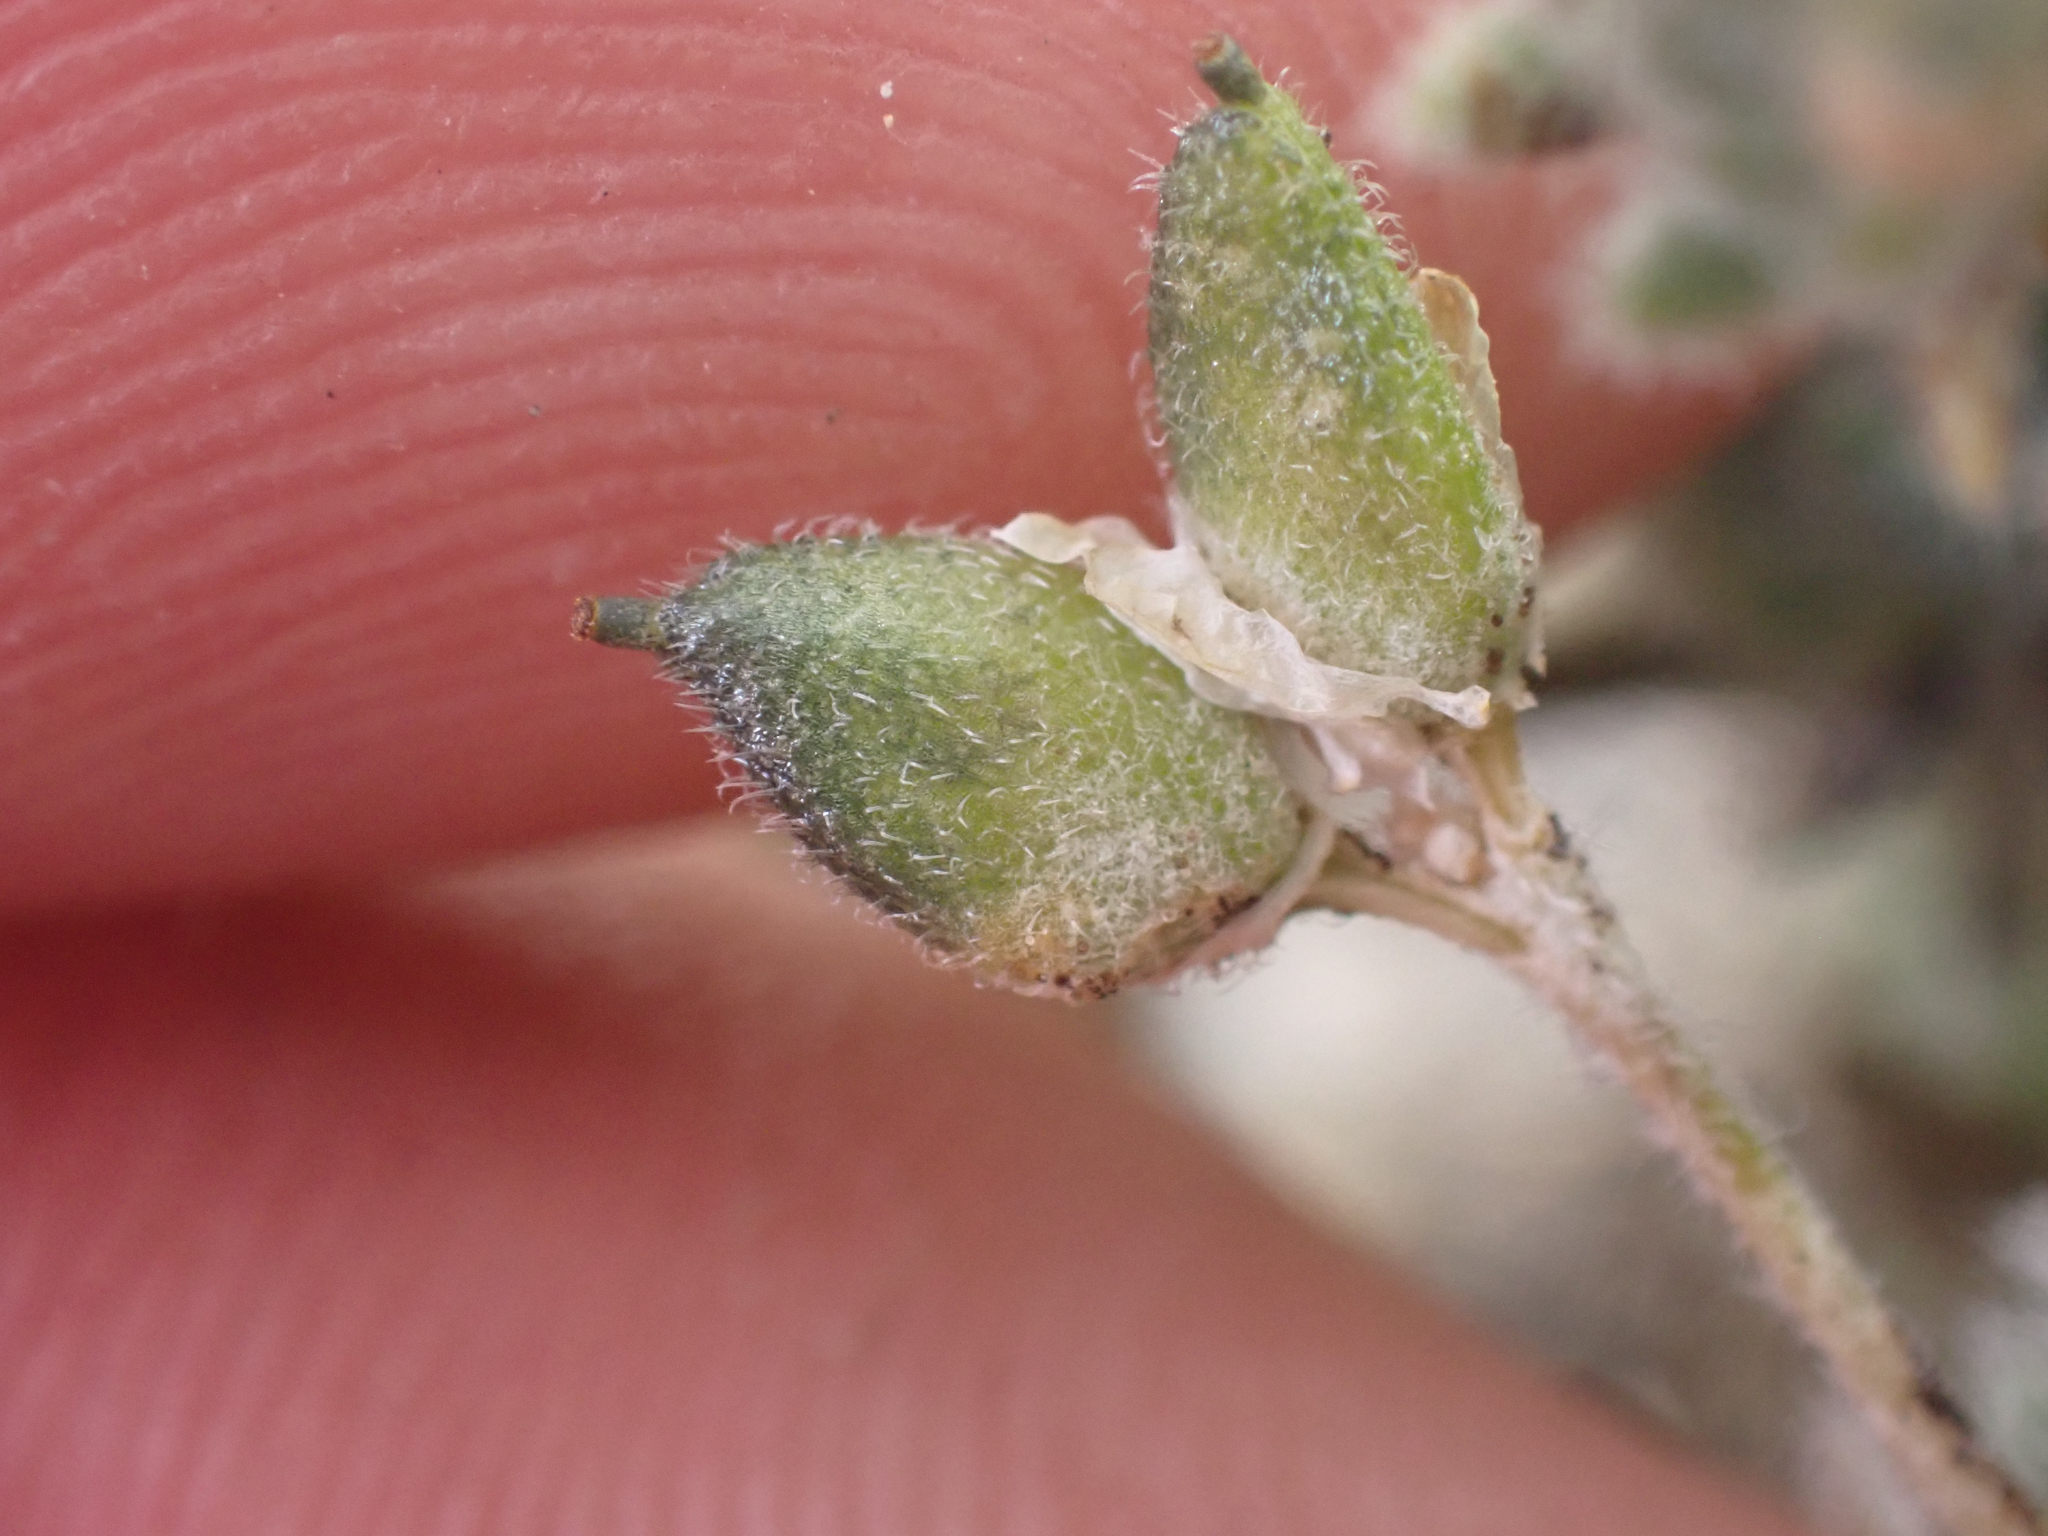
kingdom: Plantae
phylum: Tracheophyta
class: Magnoliopsida
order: Brassicales
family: Brassicaceae
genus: Draba
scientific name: Draba novolympica
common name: Olympic mountains draba
